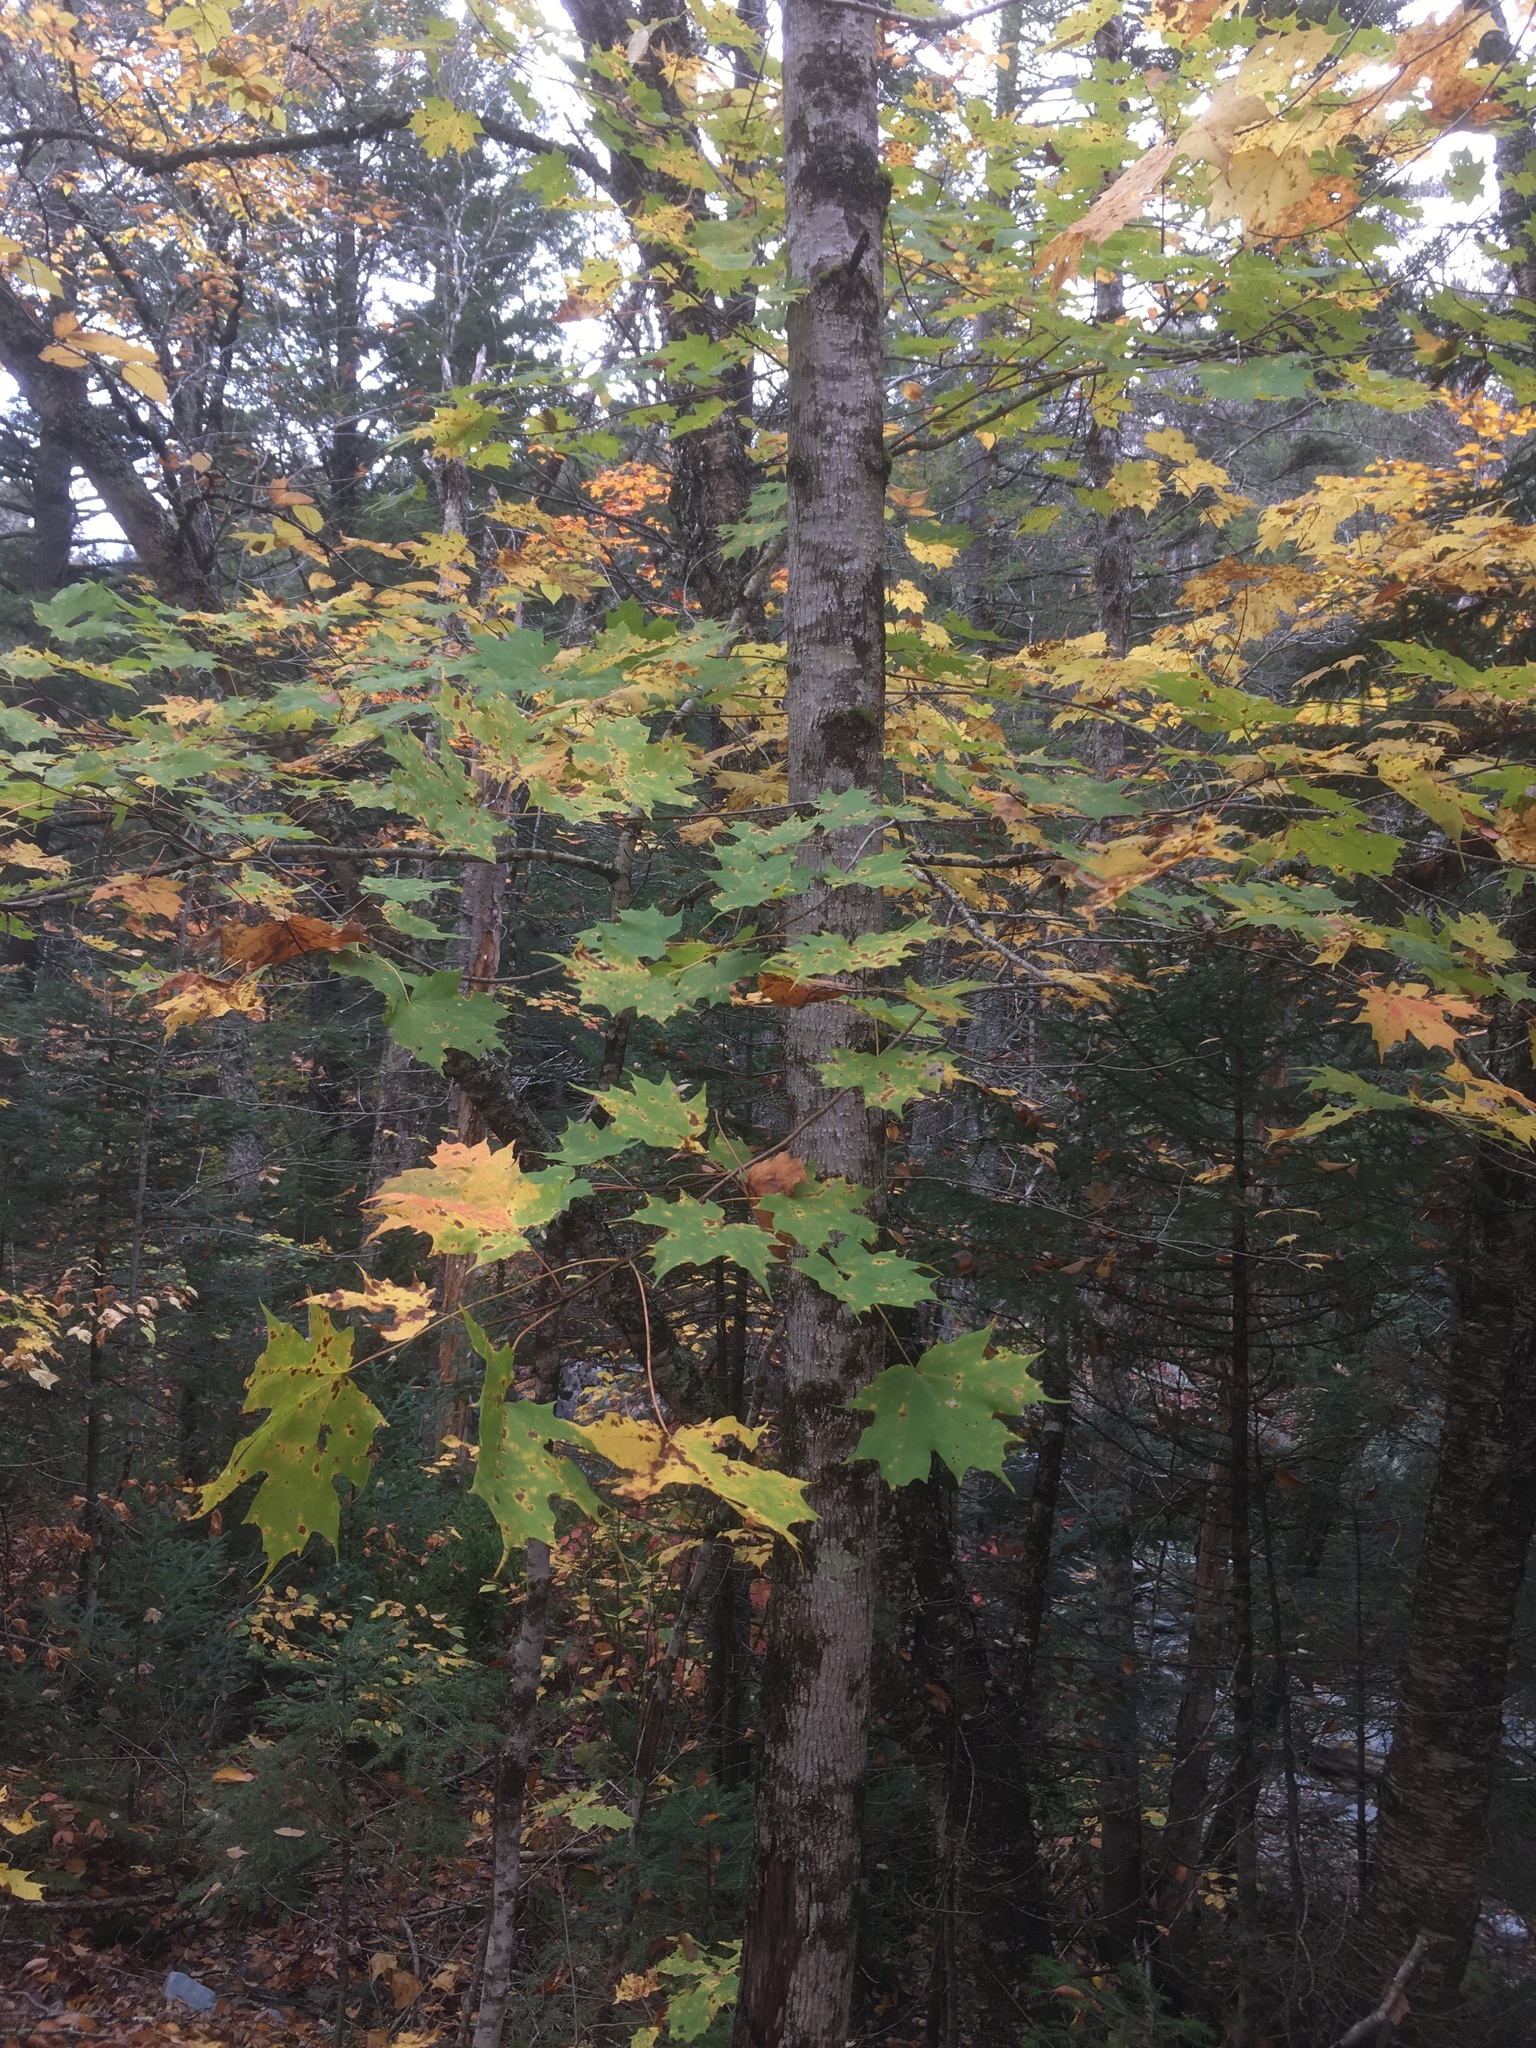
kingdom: Plantae
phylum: Tracheophyta
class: Magnoliopsida
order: Sapindales
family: Sapindaceae
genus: Acer
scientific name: Acer saccharum
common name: Sugar maple
